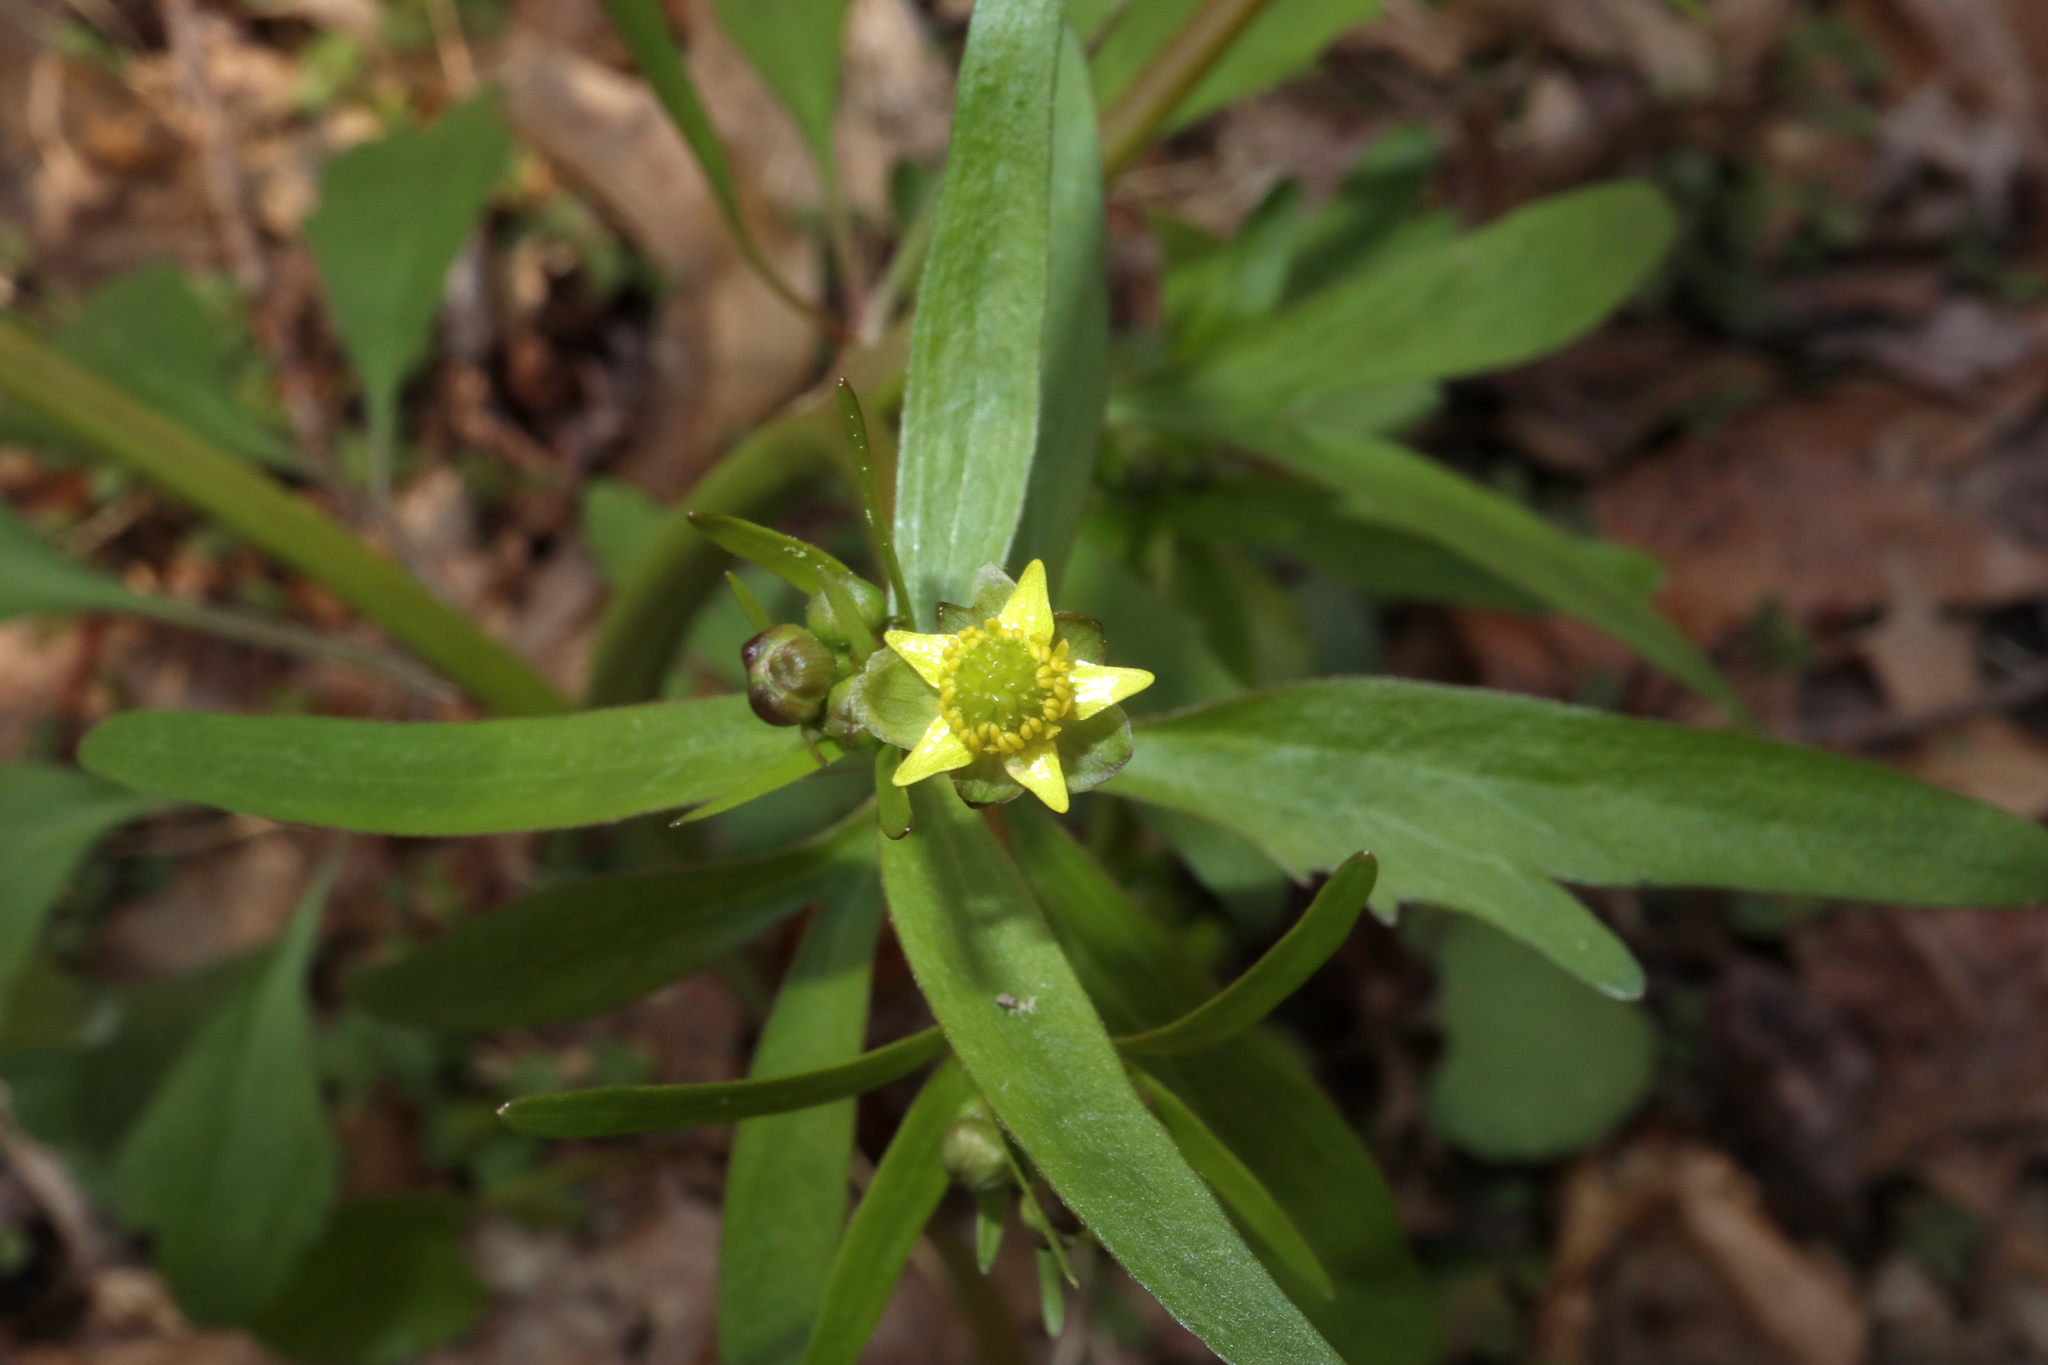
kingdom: Plantae
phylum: Tracheophyta
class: Magnoliopsida
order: Ranunculales
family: Ranunculaceae
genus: Ranunculus
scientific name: Ranunculus abortivus
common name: Early wood buttercup
